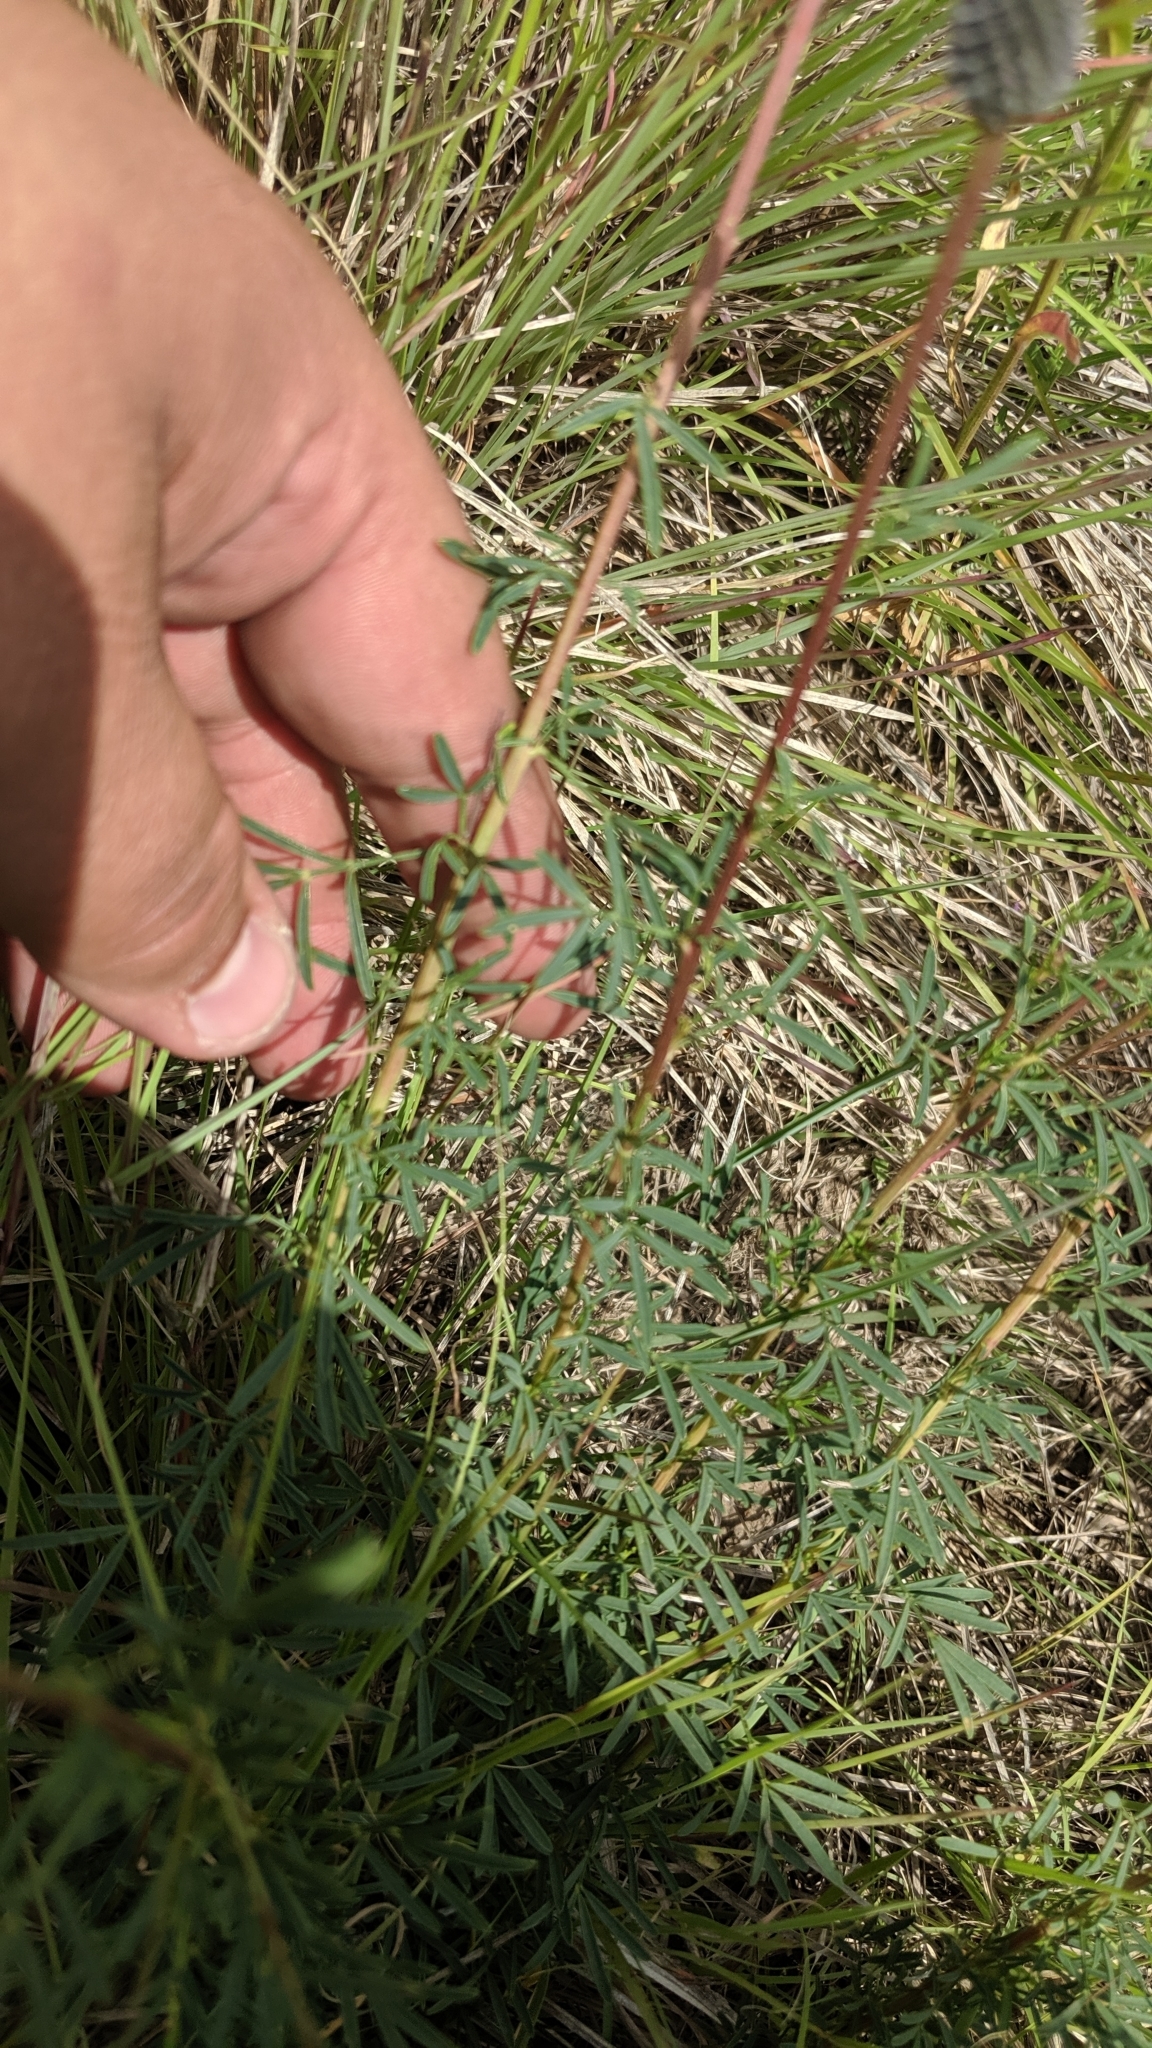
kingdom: Plantae
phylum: Tracheophyta
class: Magnoliopsida
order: Fabales
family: Fabaceae
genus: Dalea
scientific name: Dalea purpurea
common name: Purple prairie-clover
